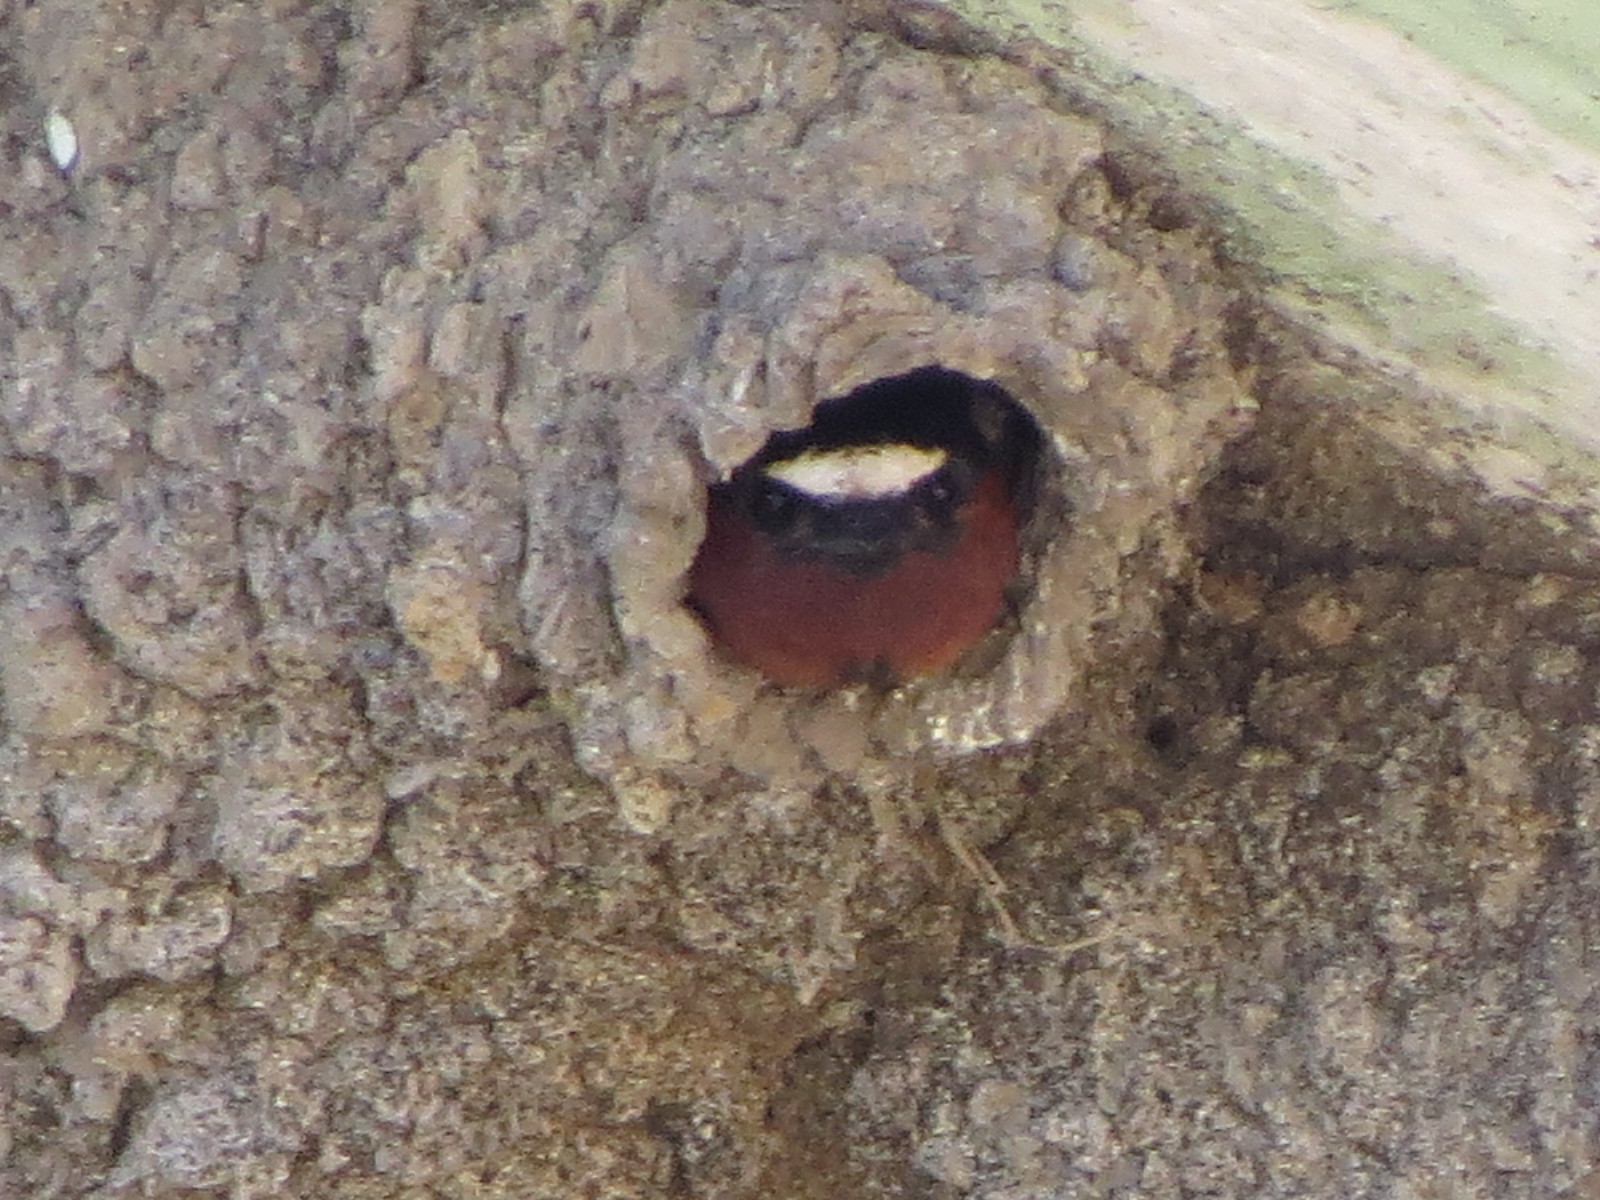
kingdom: Animalia
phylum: Chordata
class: Aves
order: Passeriformes
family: Hirundinidae
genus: Petrochelidon
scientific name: Petrochelidon pyrrhonota
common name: American cliff swallow
